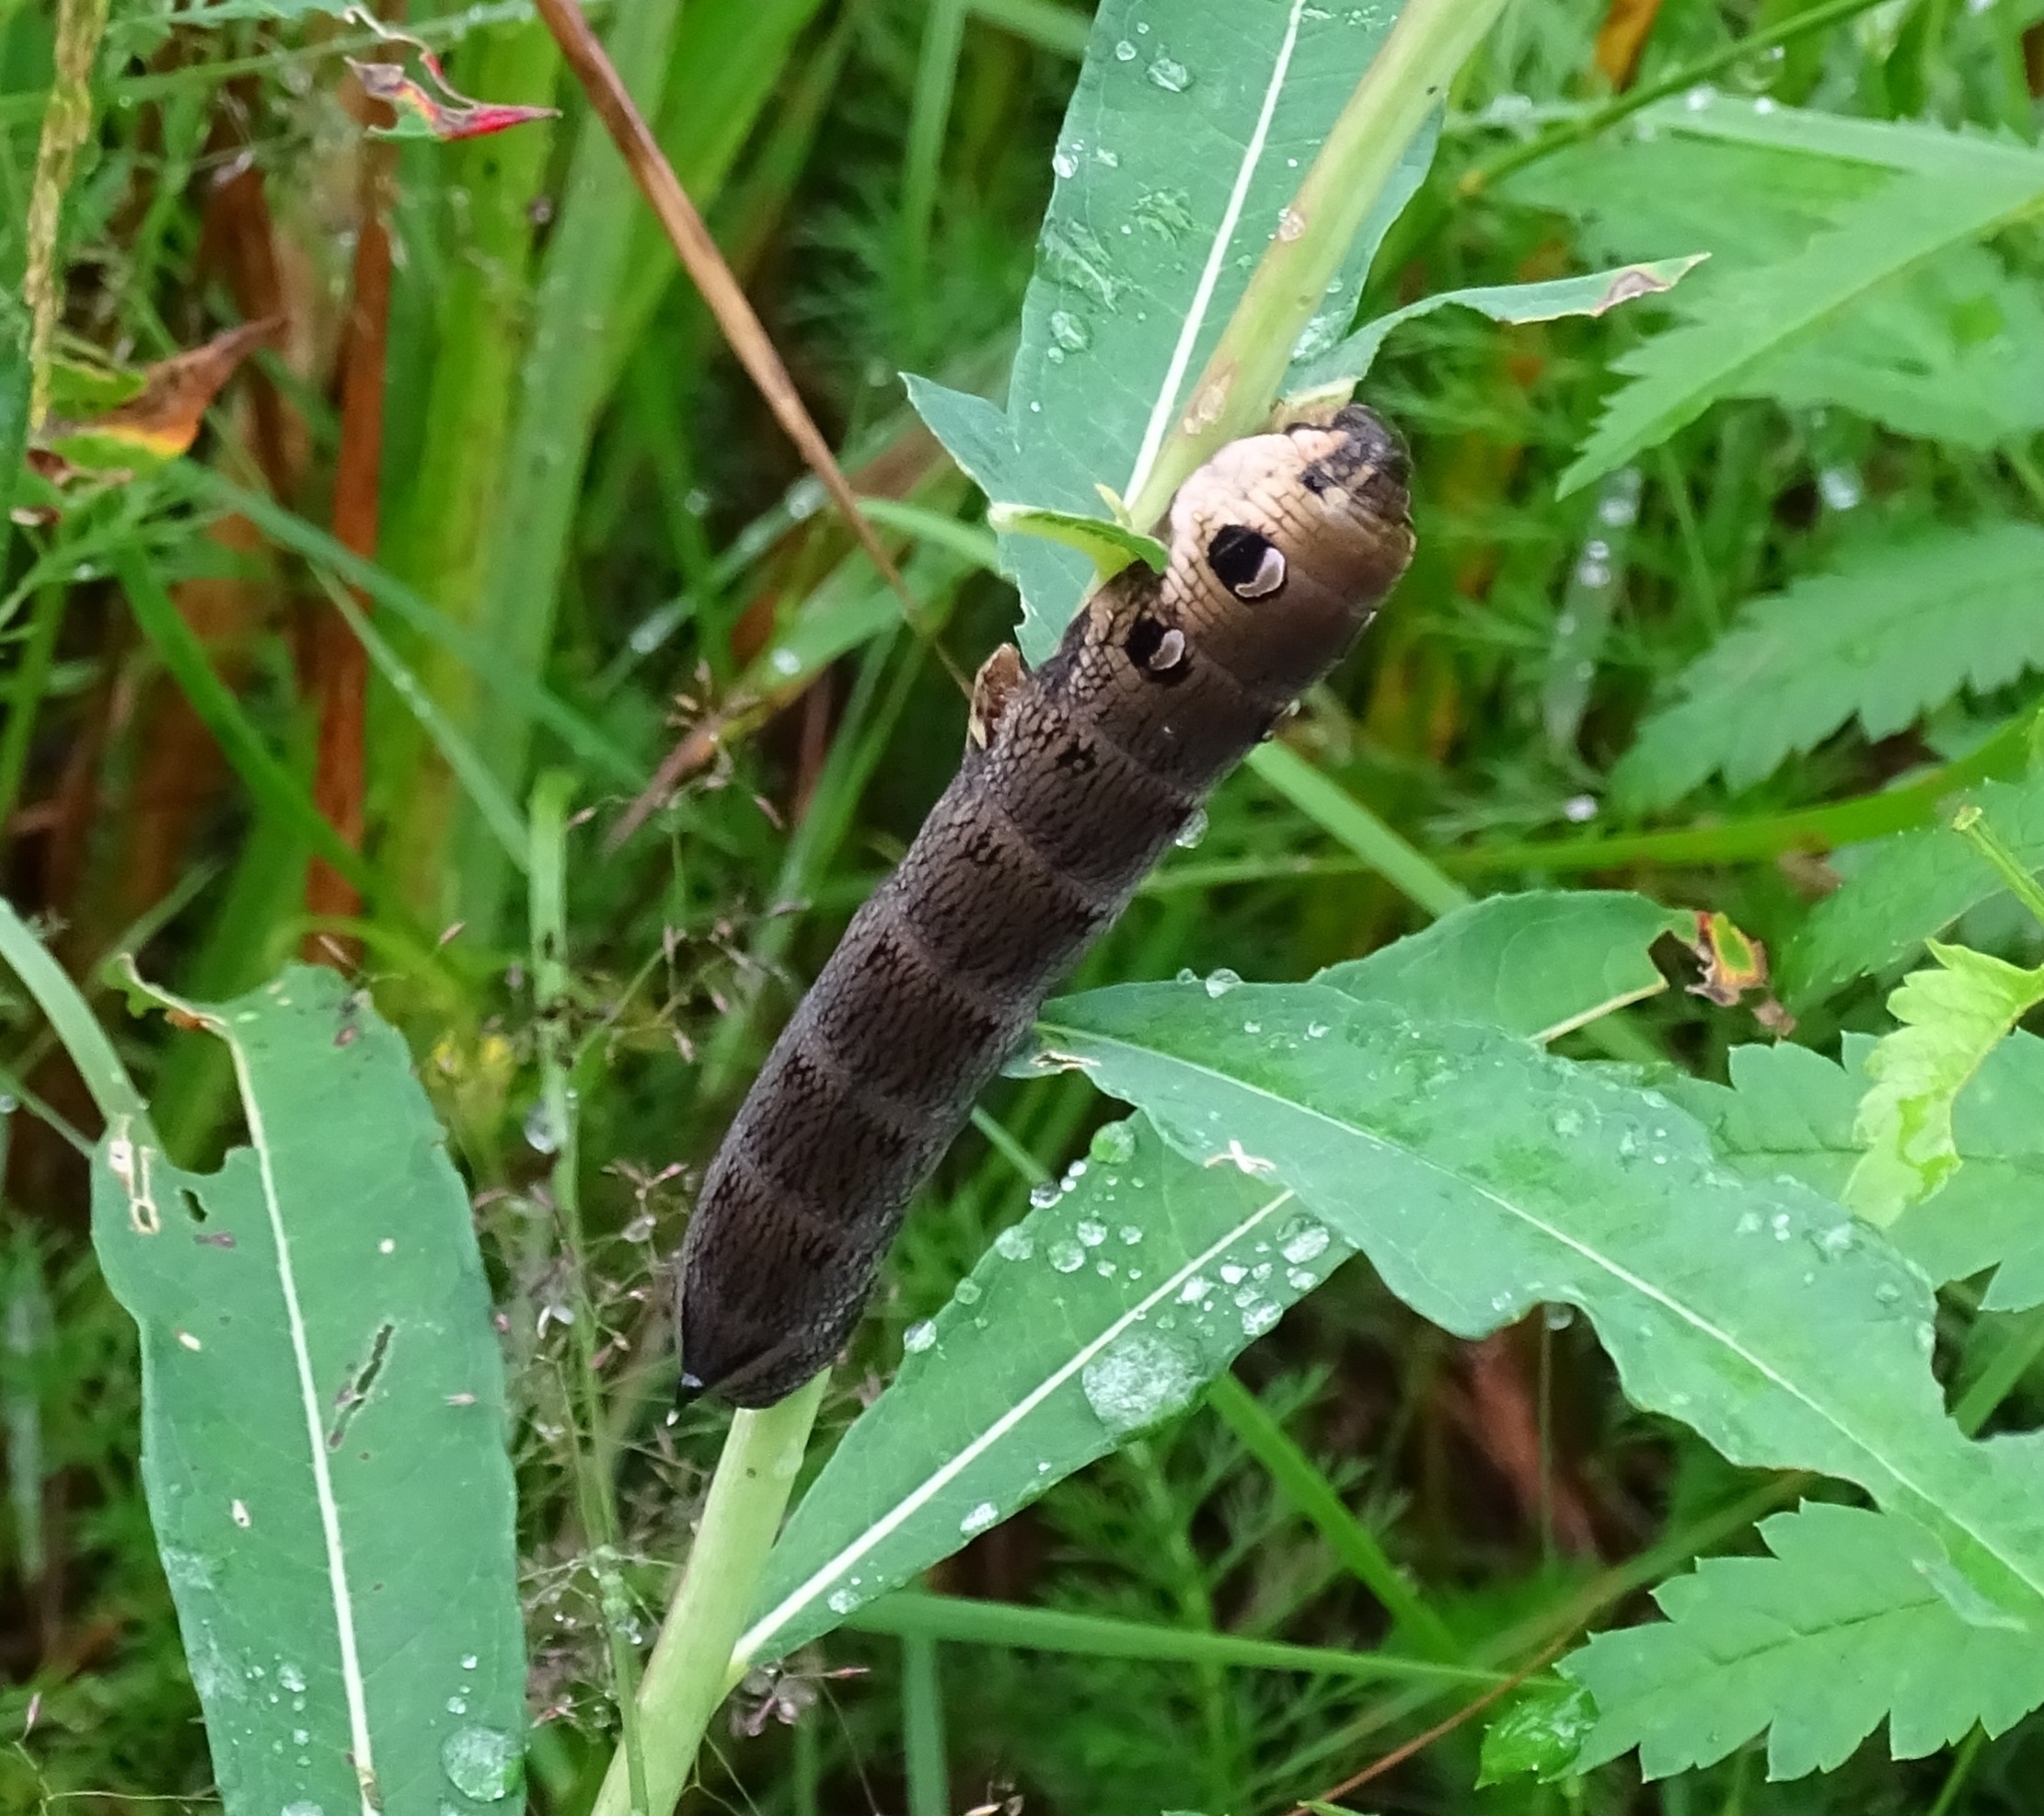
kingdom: Animalia
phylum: Arthropoda
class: Insecta
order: Lepidoptera
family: Sphingidae
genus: Deilephila
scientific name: Deilephila elpenor
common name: Elephant hawk-moth
